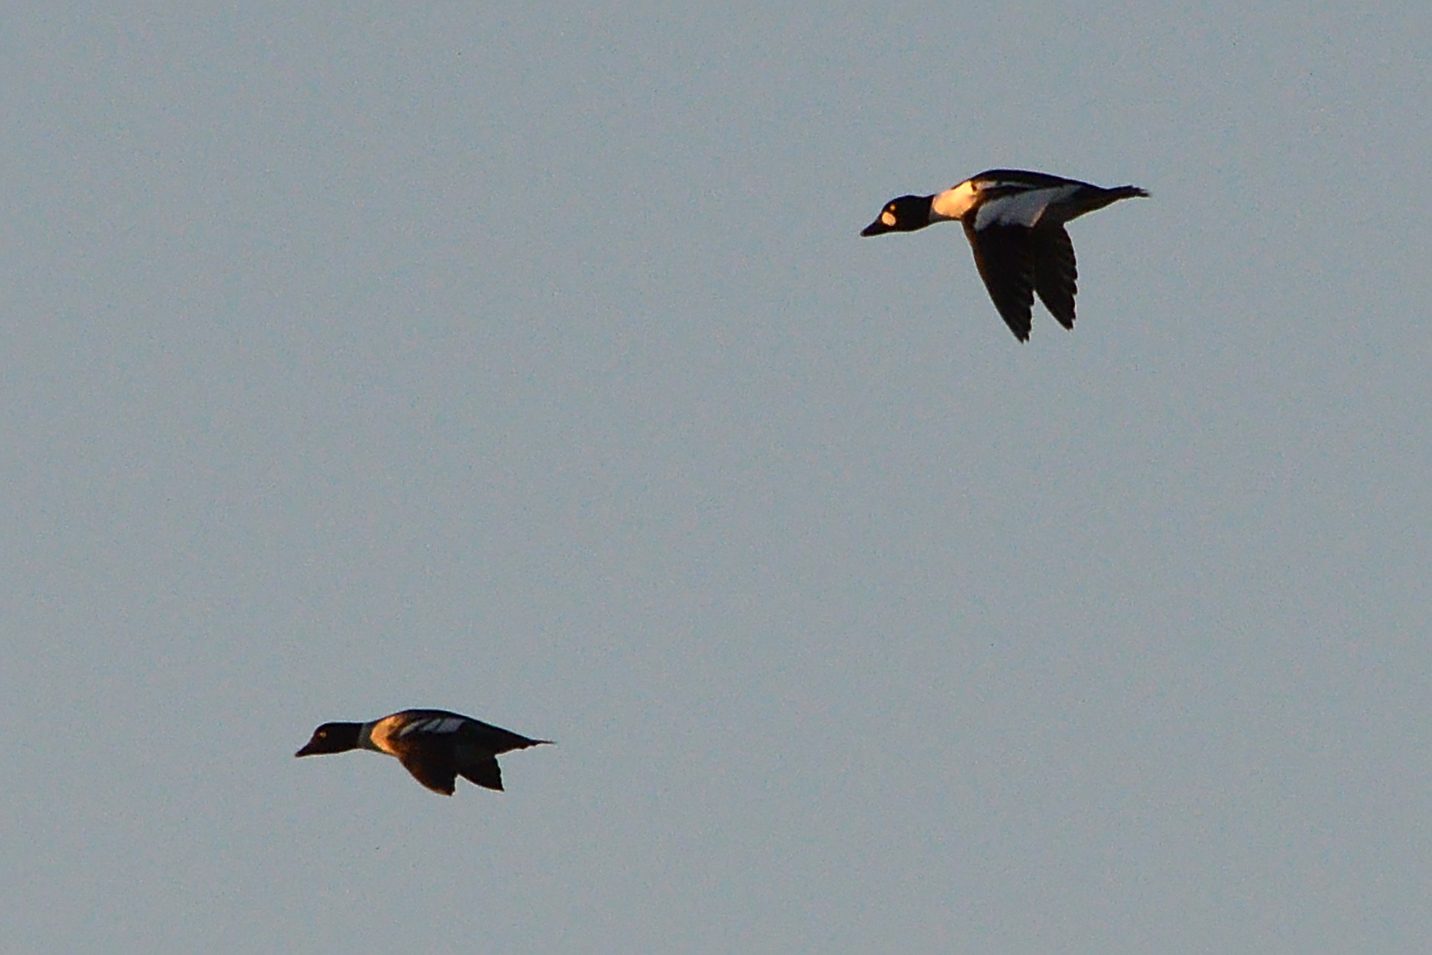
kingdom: Animalia
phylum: Chordata
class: Aves
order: Anseriformes
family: Anatidae
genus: Bucephala
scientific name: Bucephala clangula
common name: Common goldeneye
